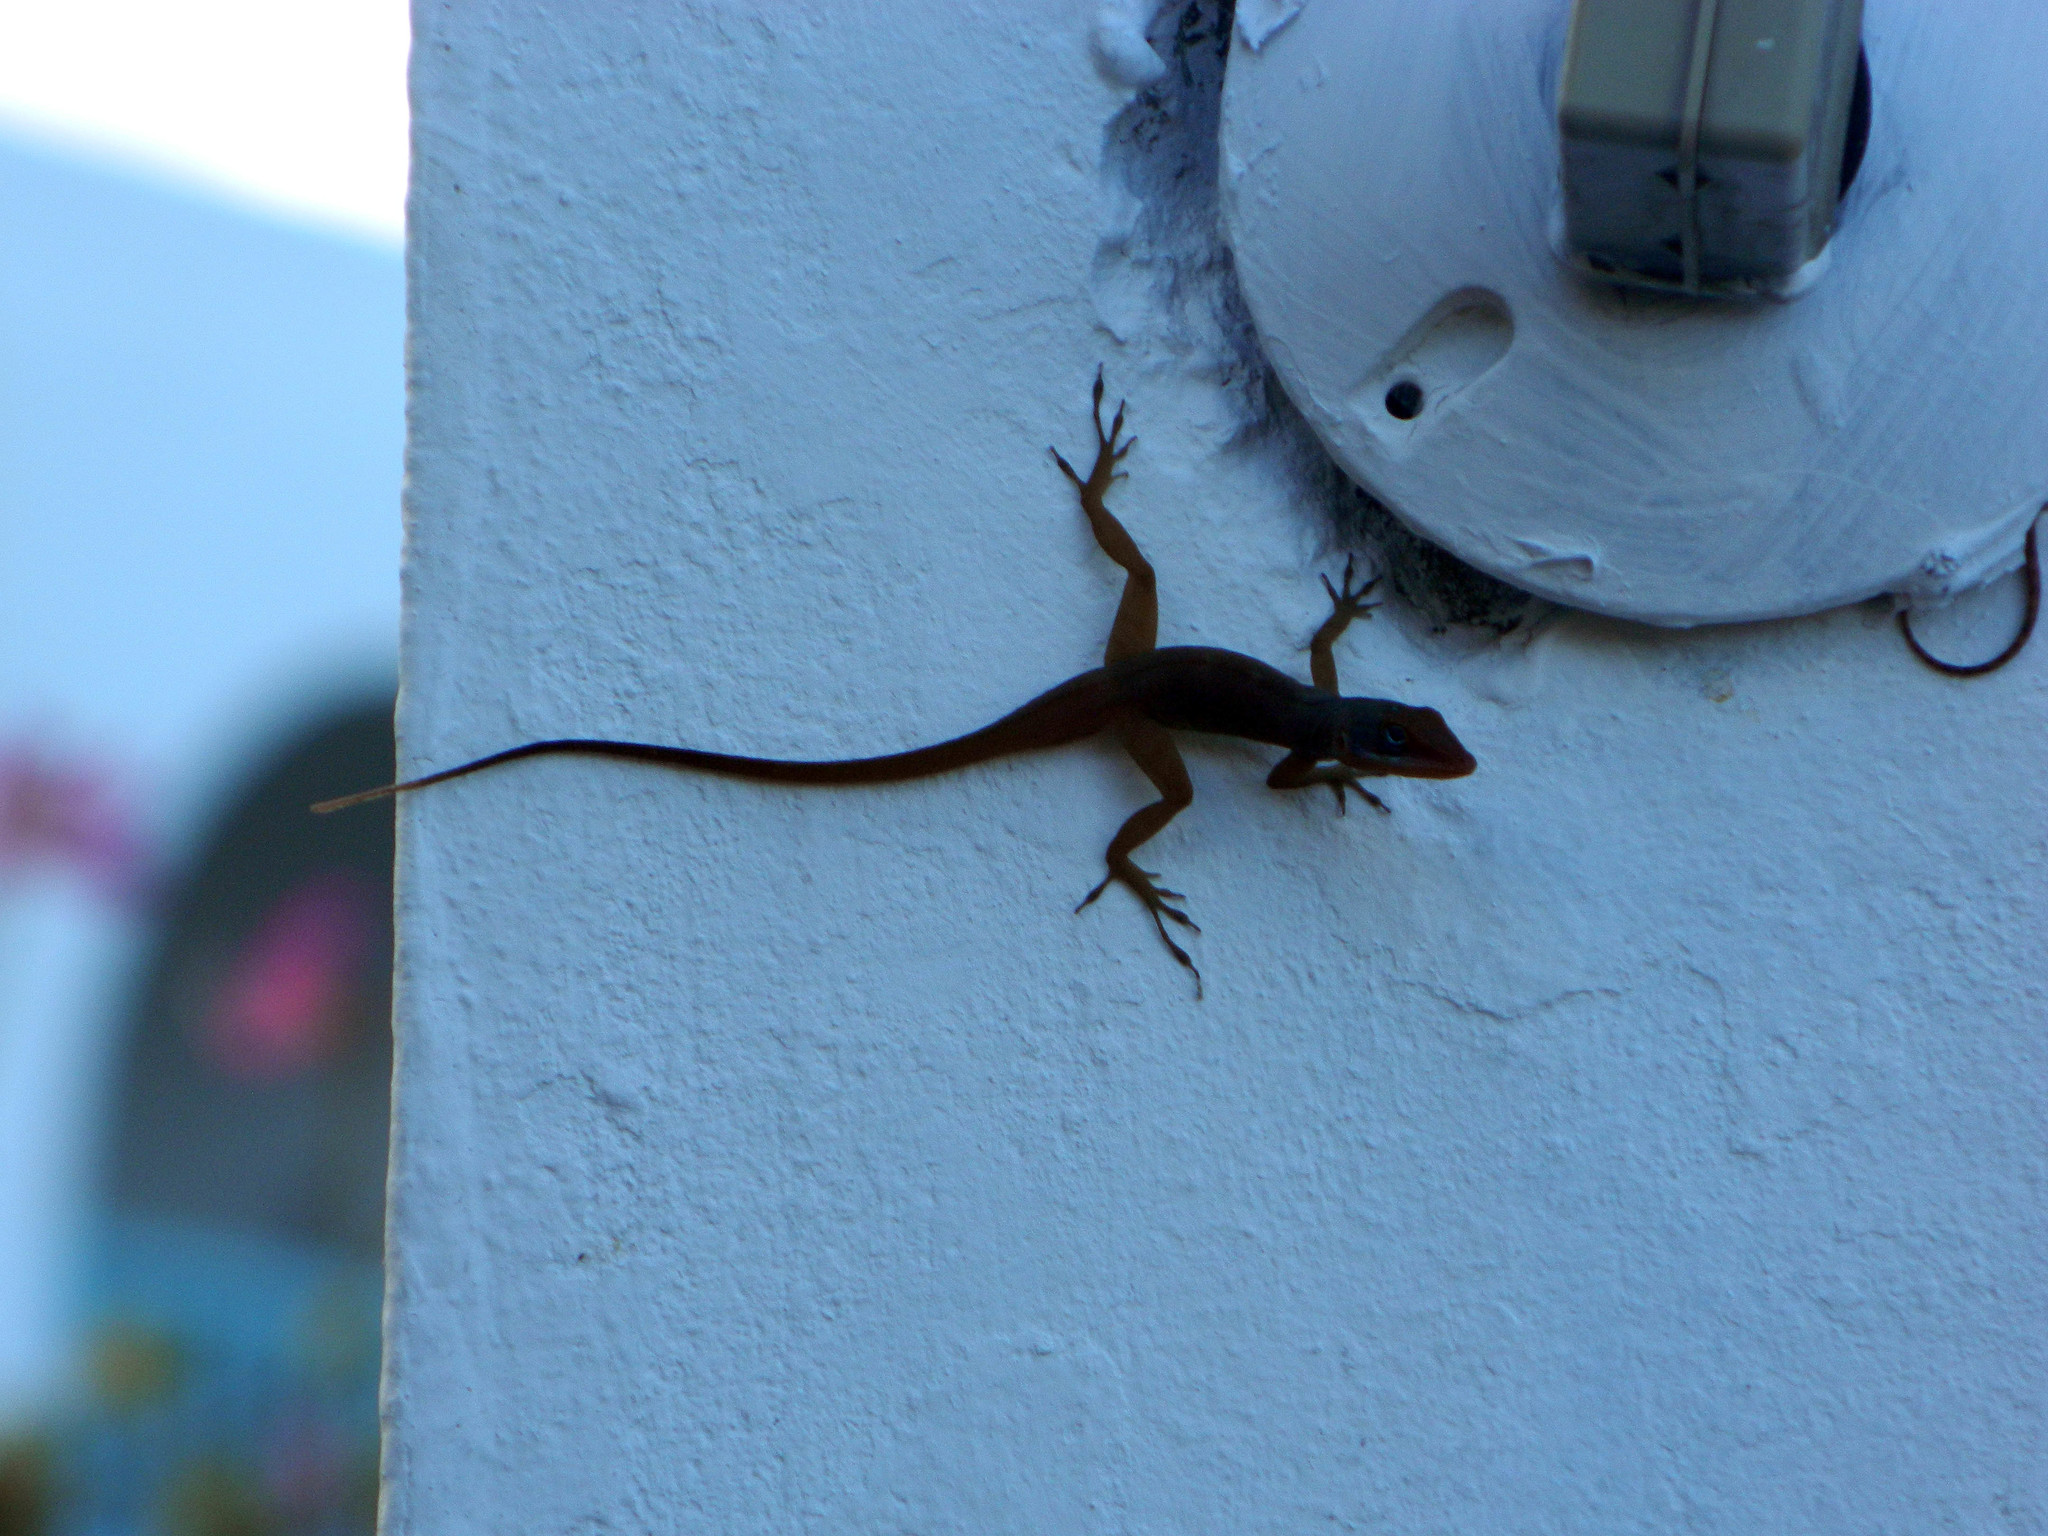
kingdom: Animalia
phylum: Chordata
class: Squamata
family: Dactyloidae
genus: Anolis
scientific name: Anolis wattsii
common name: Antigua bank bush anole
